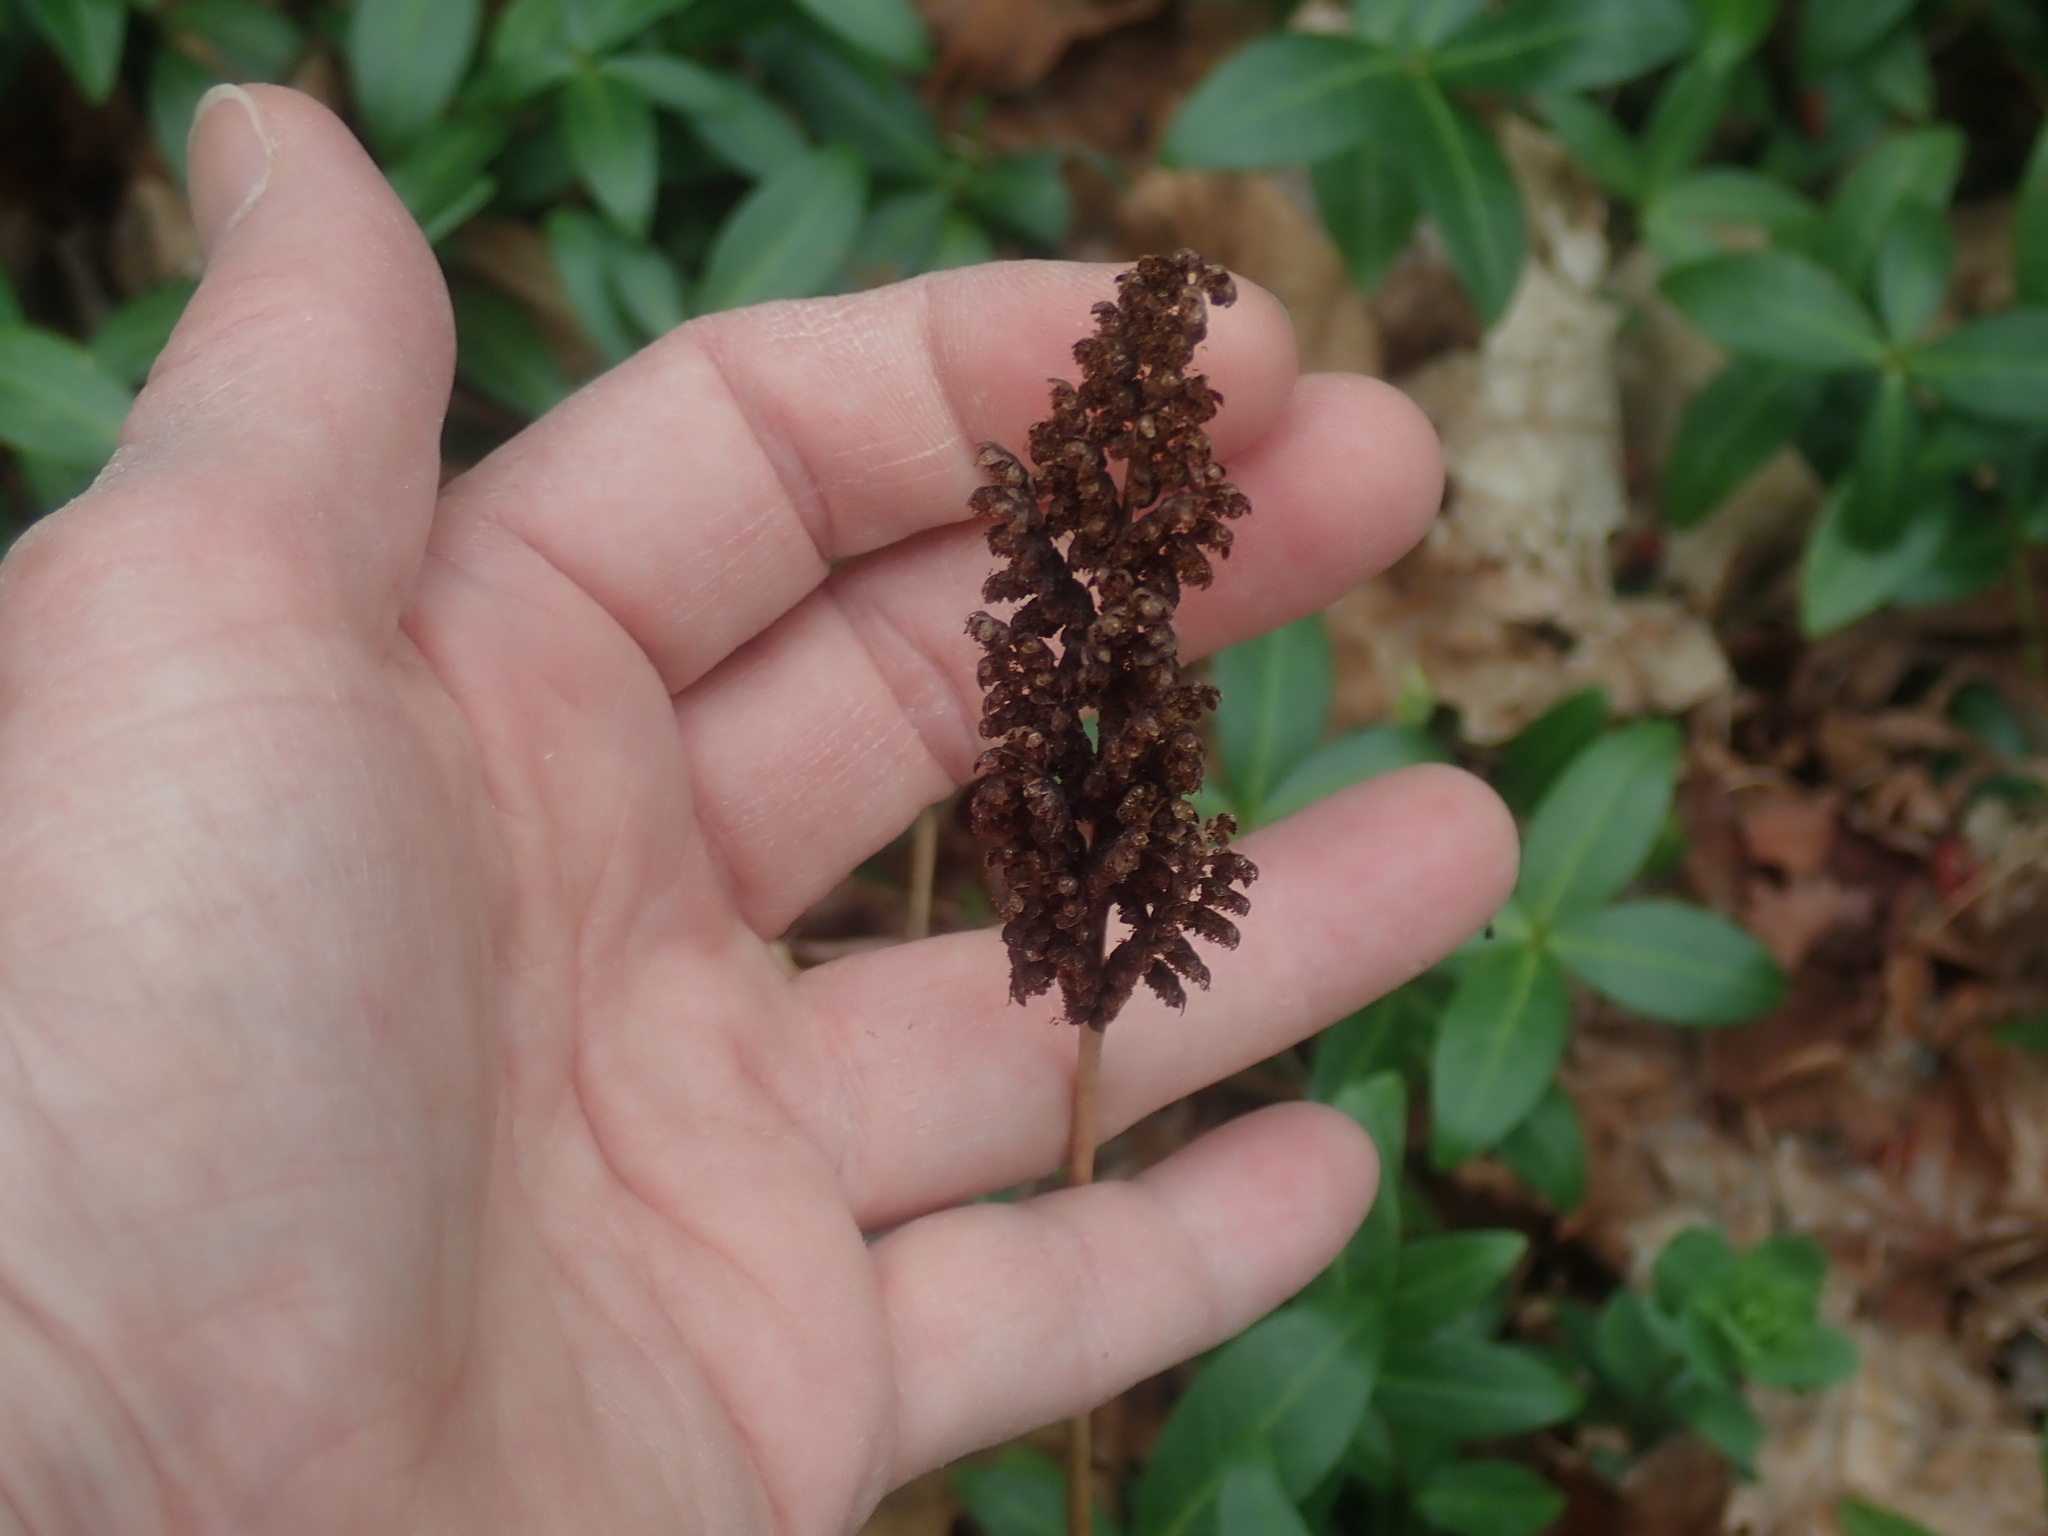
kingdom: Plantae
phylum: Tracheophyta
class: Polypodiopsida
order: Polypodiales
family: Onocleaceae
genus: Onoclea
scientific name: Onoclea sensibilis
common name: Sensitive fern
